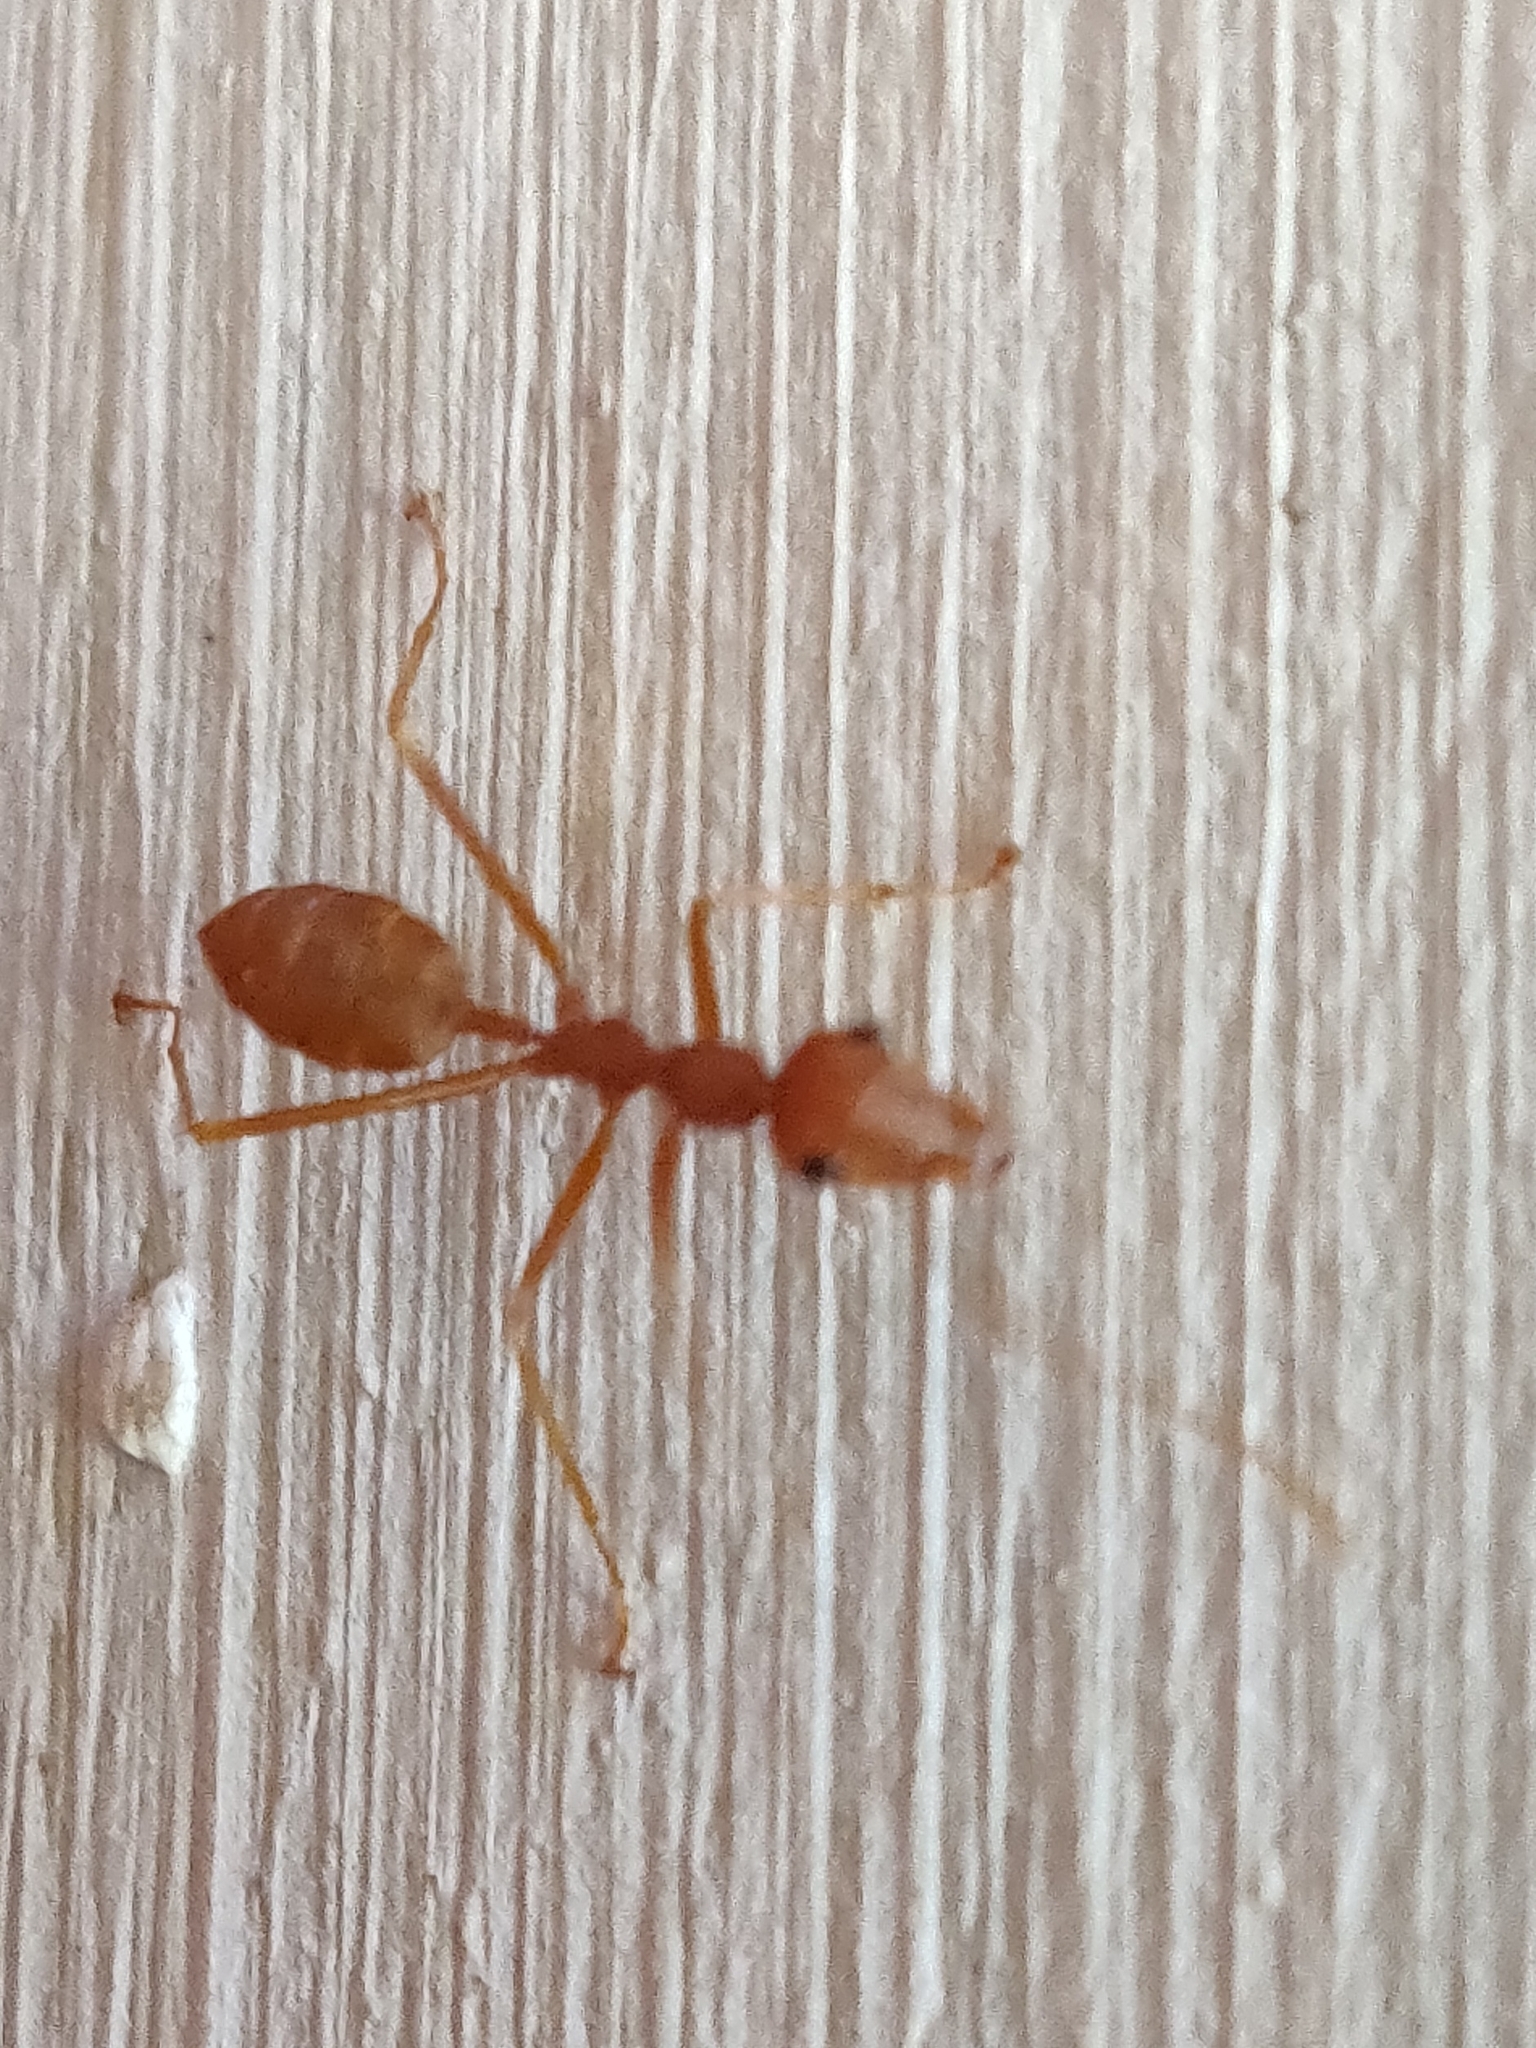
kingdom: Animalia
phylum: Arthropoda
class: Insecta
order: Hymenoptera
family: Formicidae
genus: Oecophylla
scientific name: Oecophylla smaragdina
